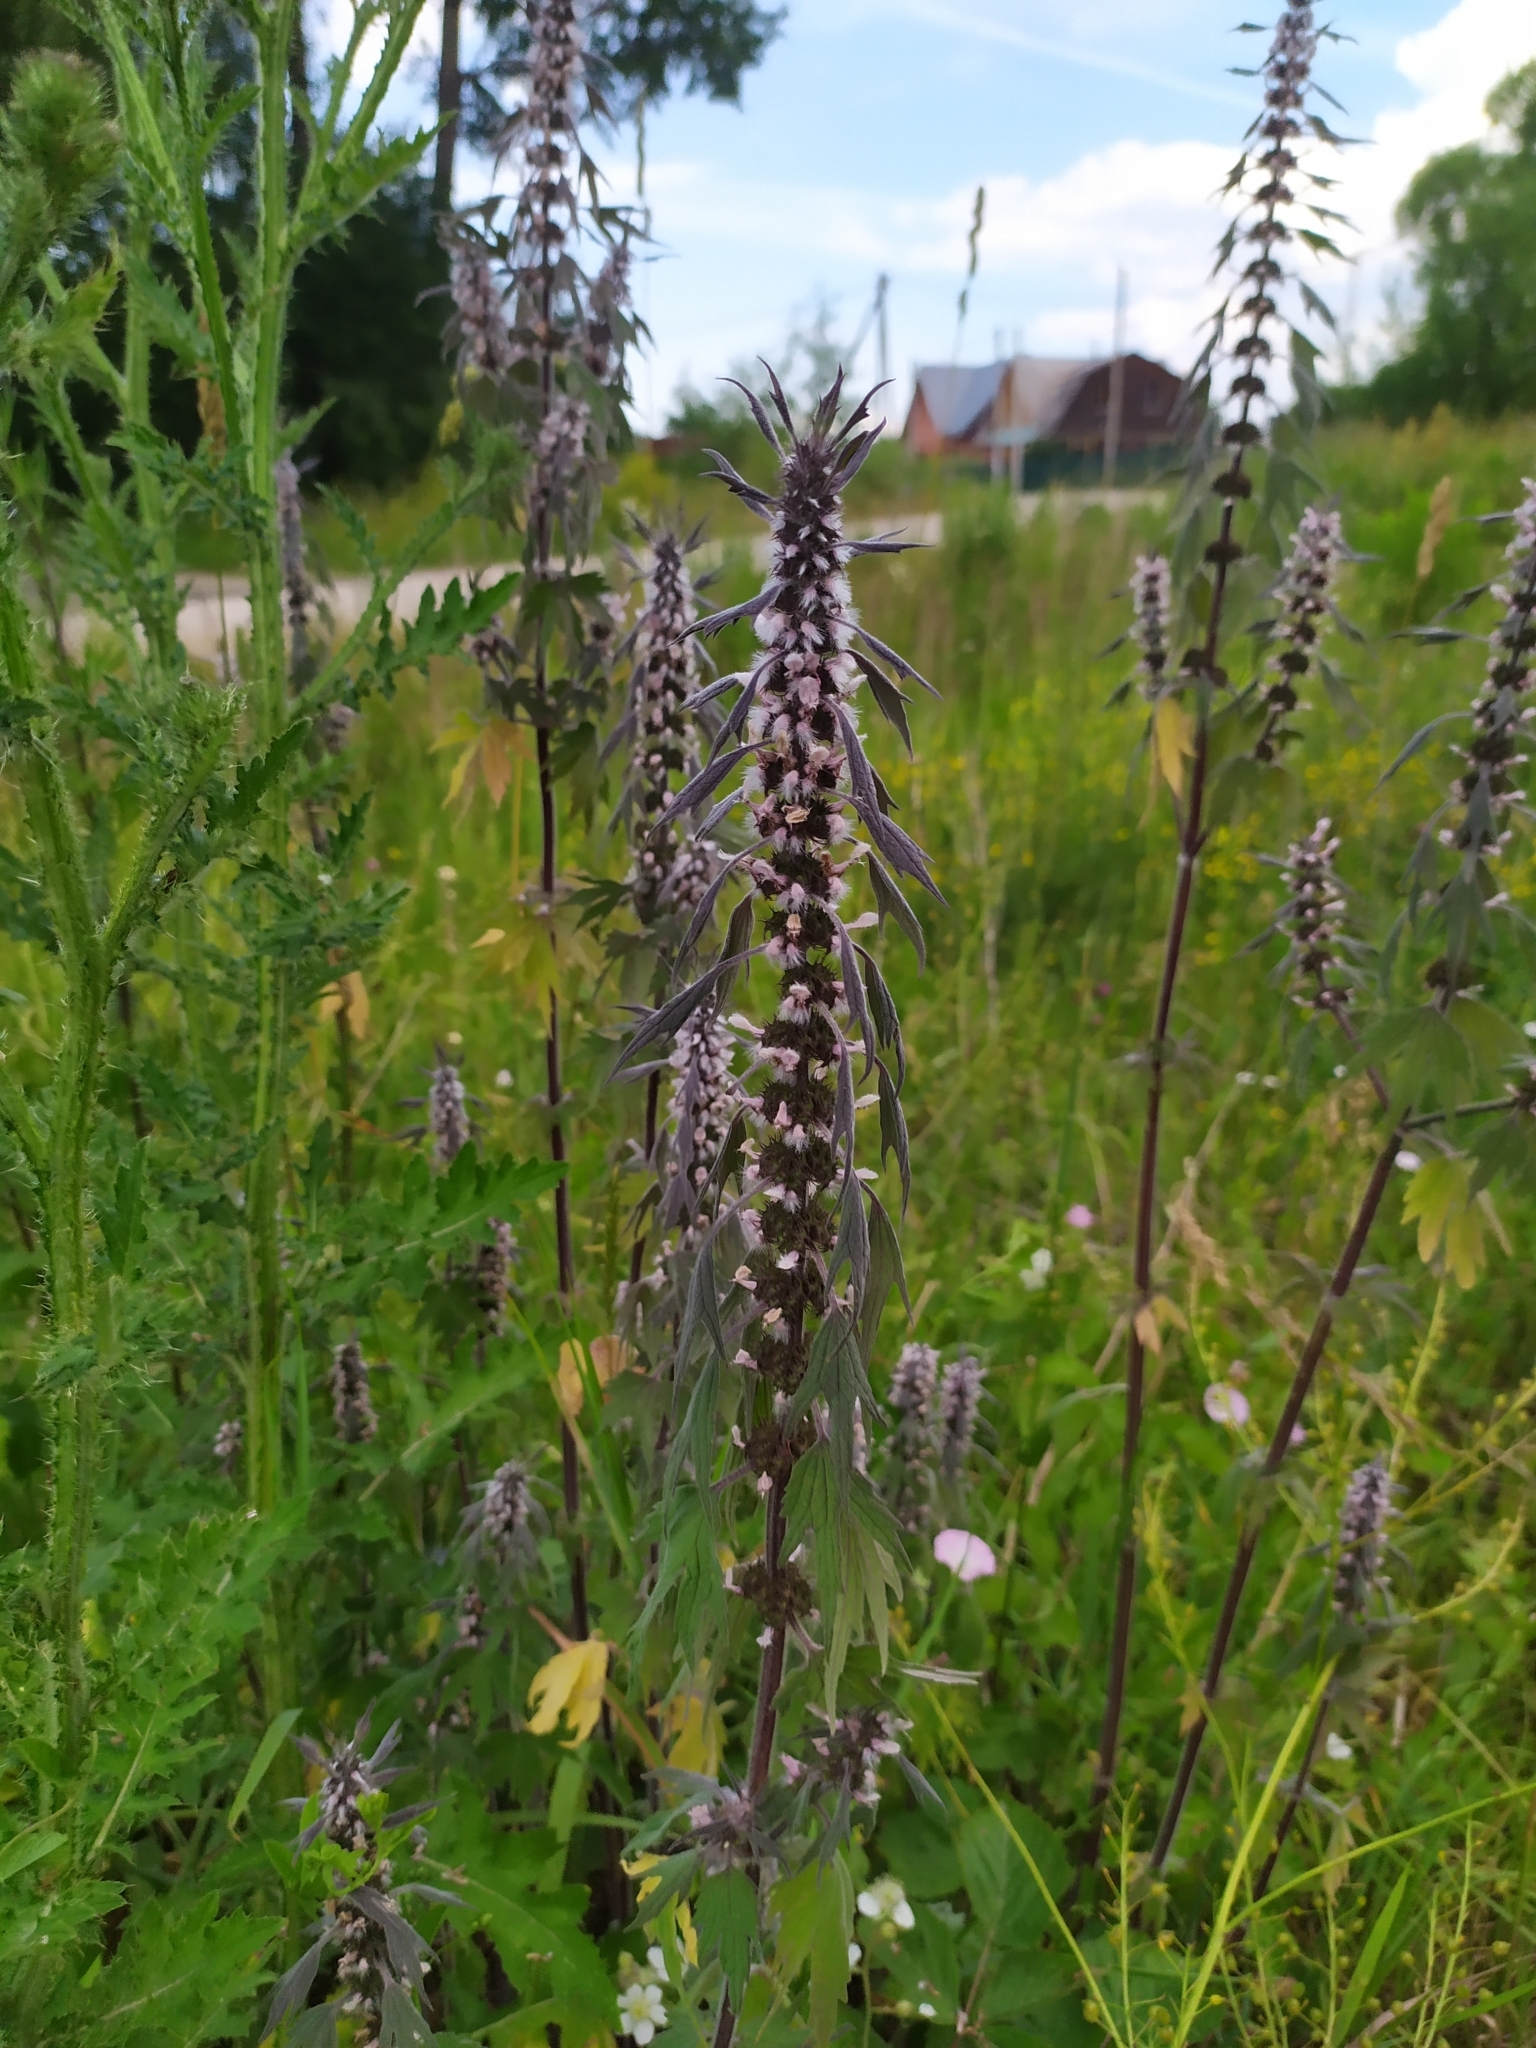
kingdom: Plantae
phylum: Tracheophyta
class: Magnoliopsida
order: Lamiales
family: Lamiaceae
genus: Leonurus
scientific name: Leonurus quinquelobatus
